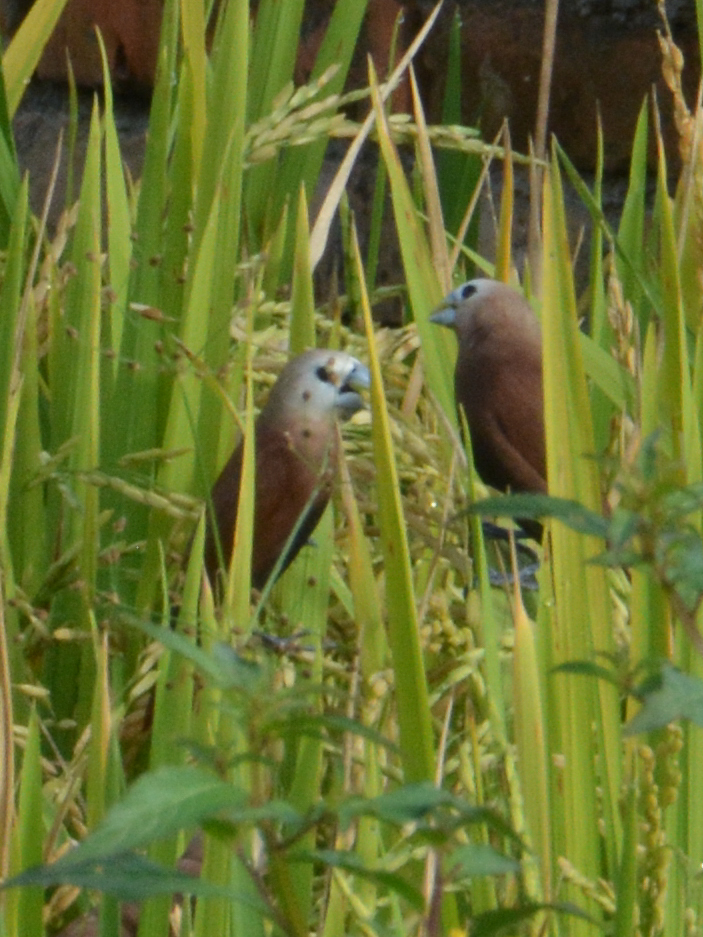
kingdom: Animalia
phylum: Chordata
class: Aves
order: Passeriformes
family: Estrildidae
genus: Lonchura
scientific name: Lonchura maja
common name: White-headed munia
